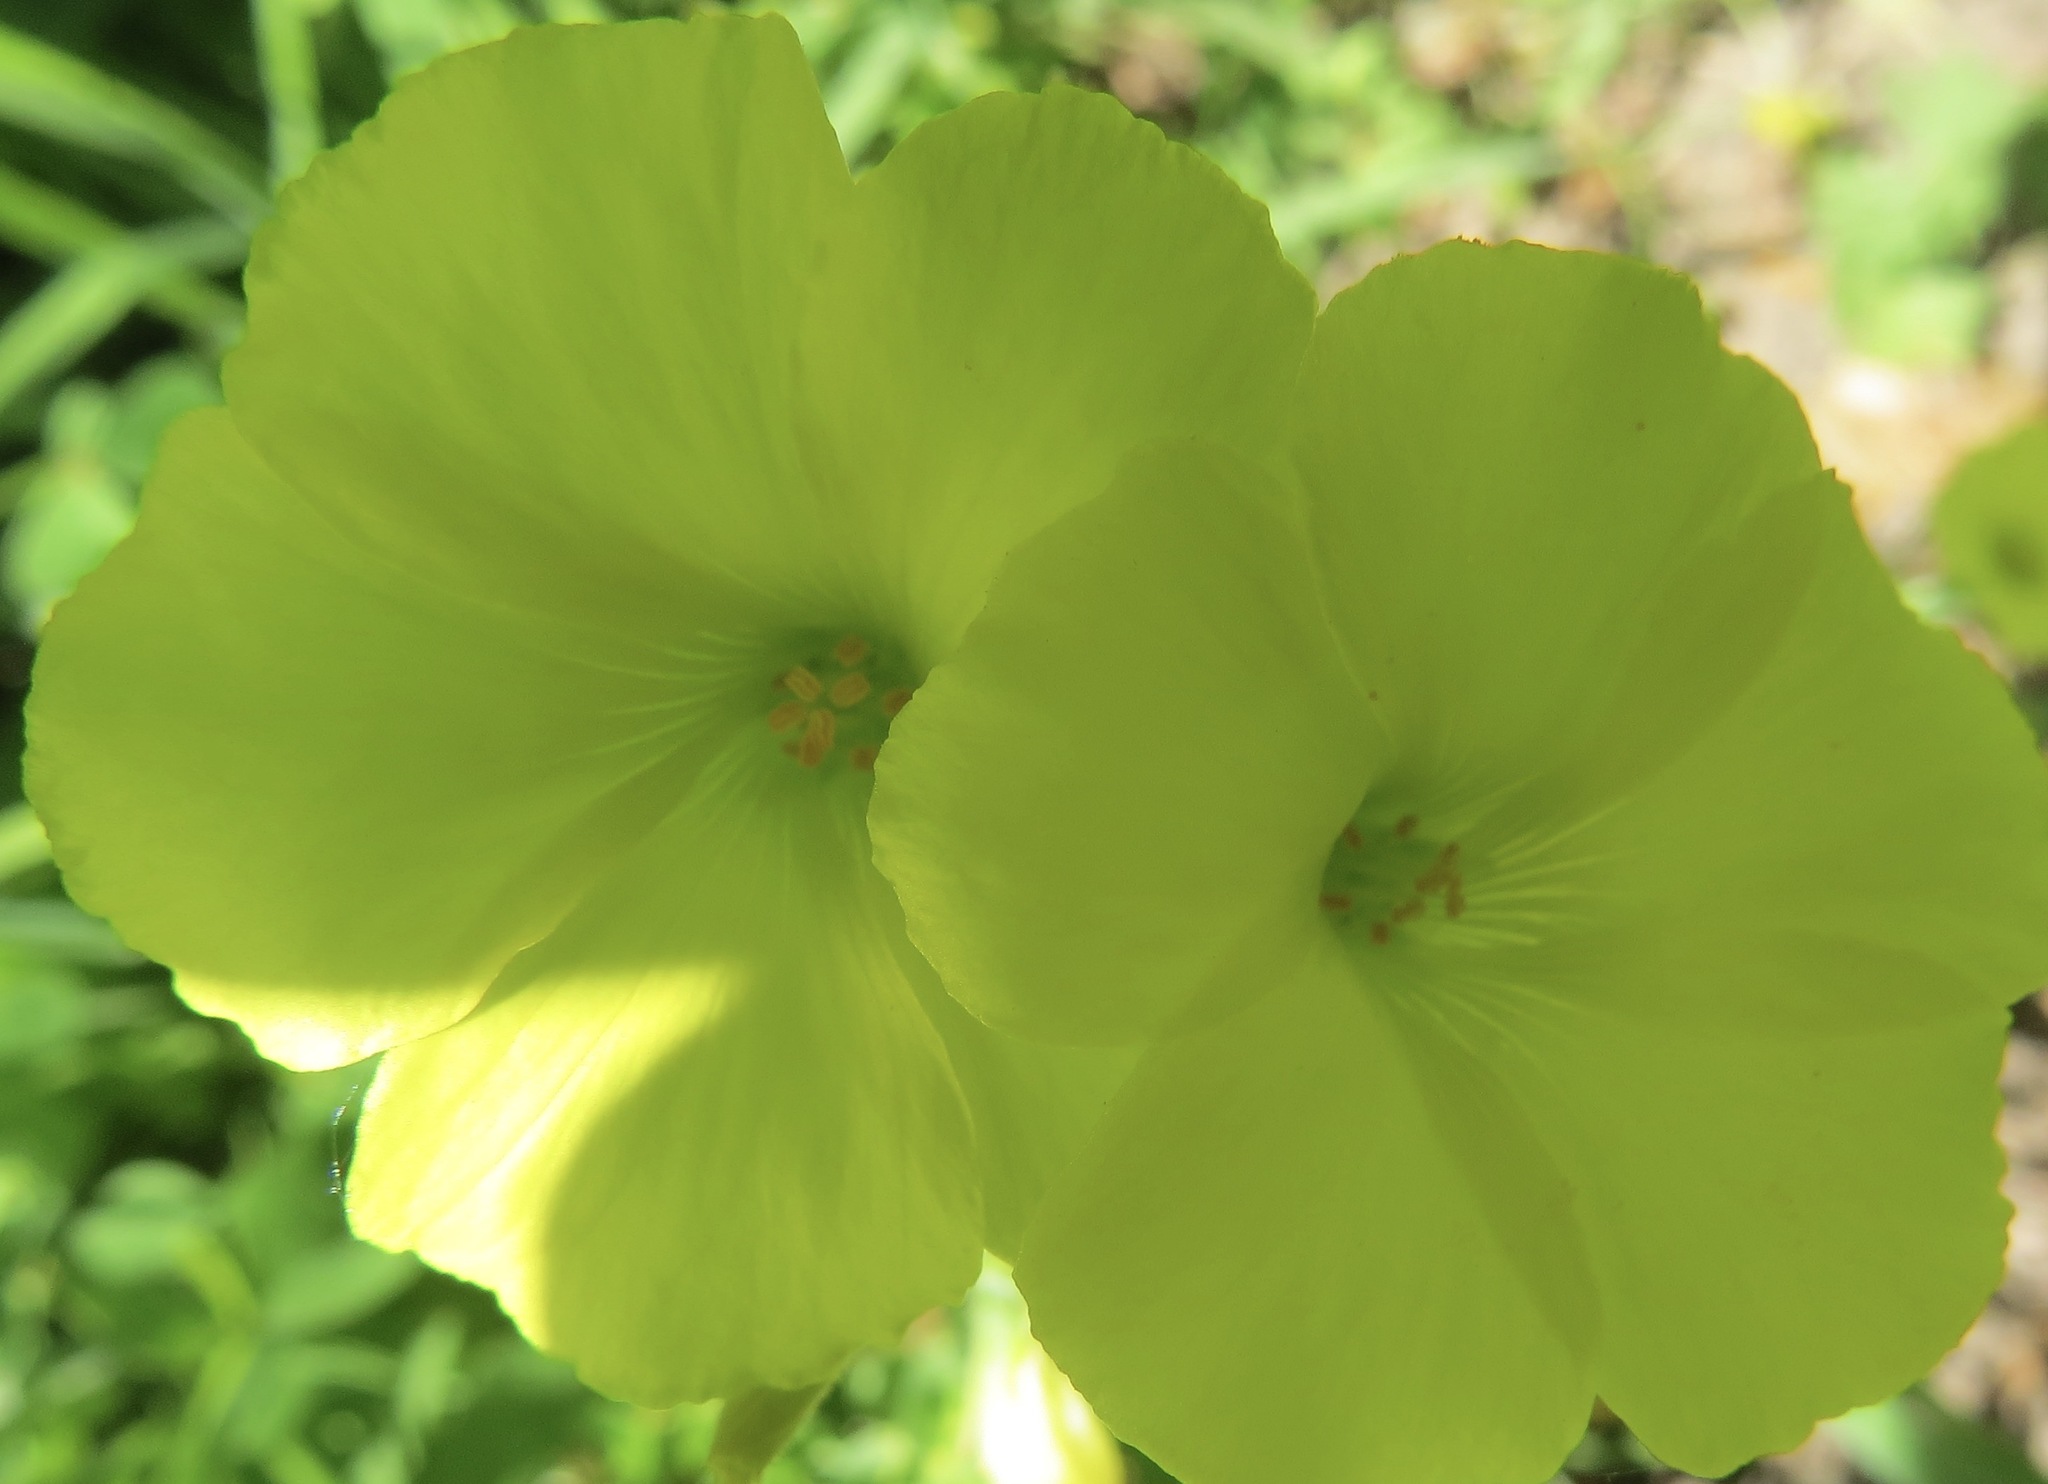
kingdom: Plantae
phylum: Tracheophyta
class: Magnoliopsida
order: Oxalidales
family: Oxalidaceae
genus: Oxalis
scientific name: Oxalis pes-caprae
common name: Bermuda-buttercup
